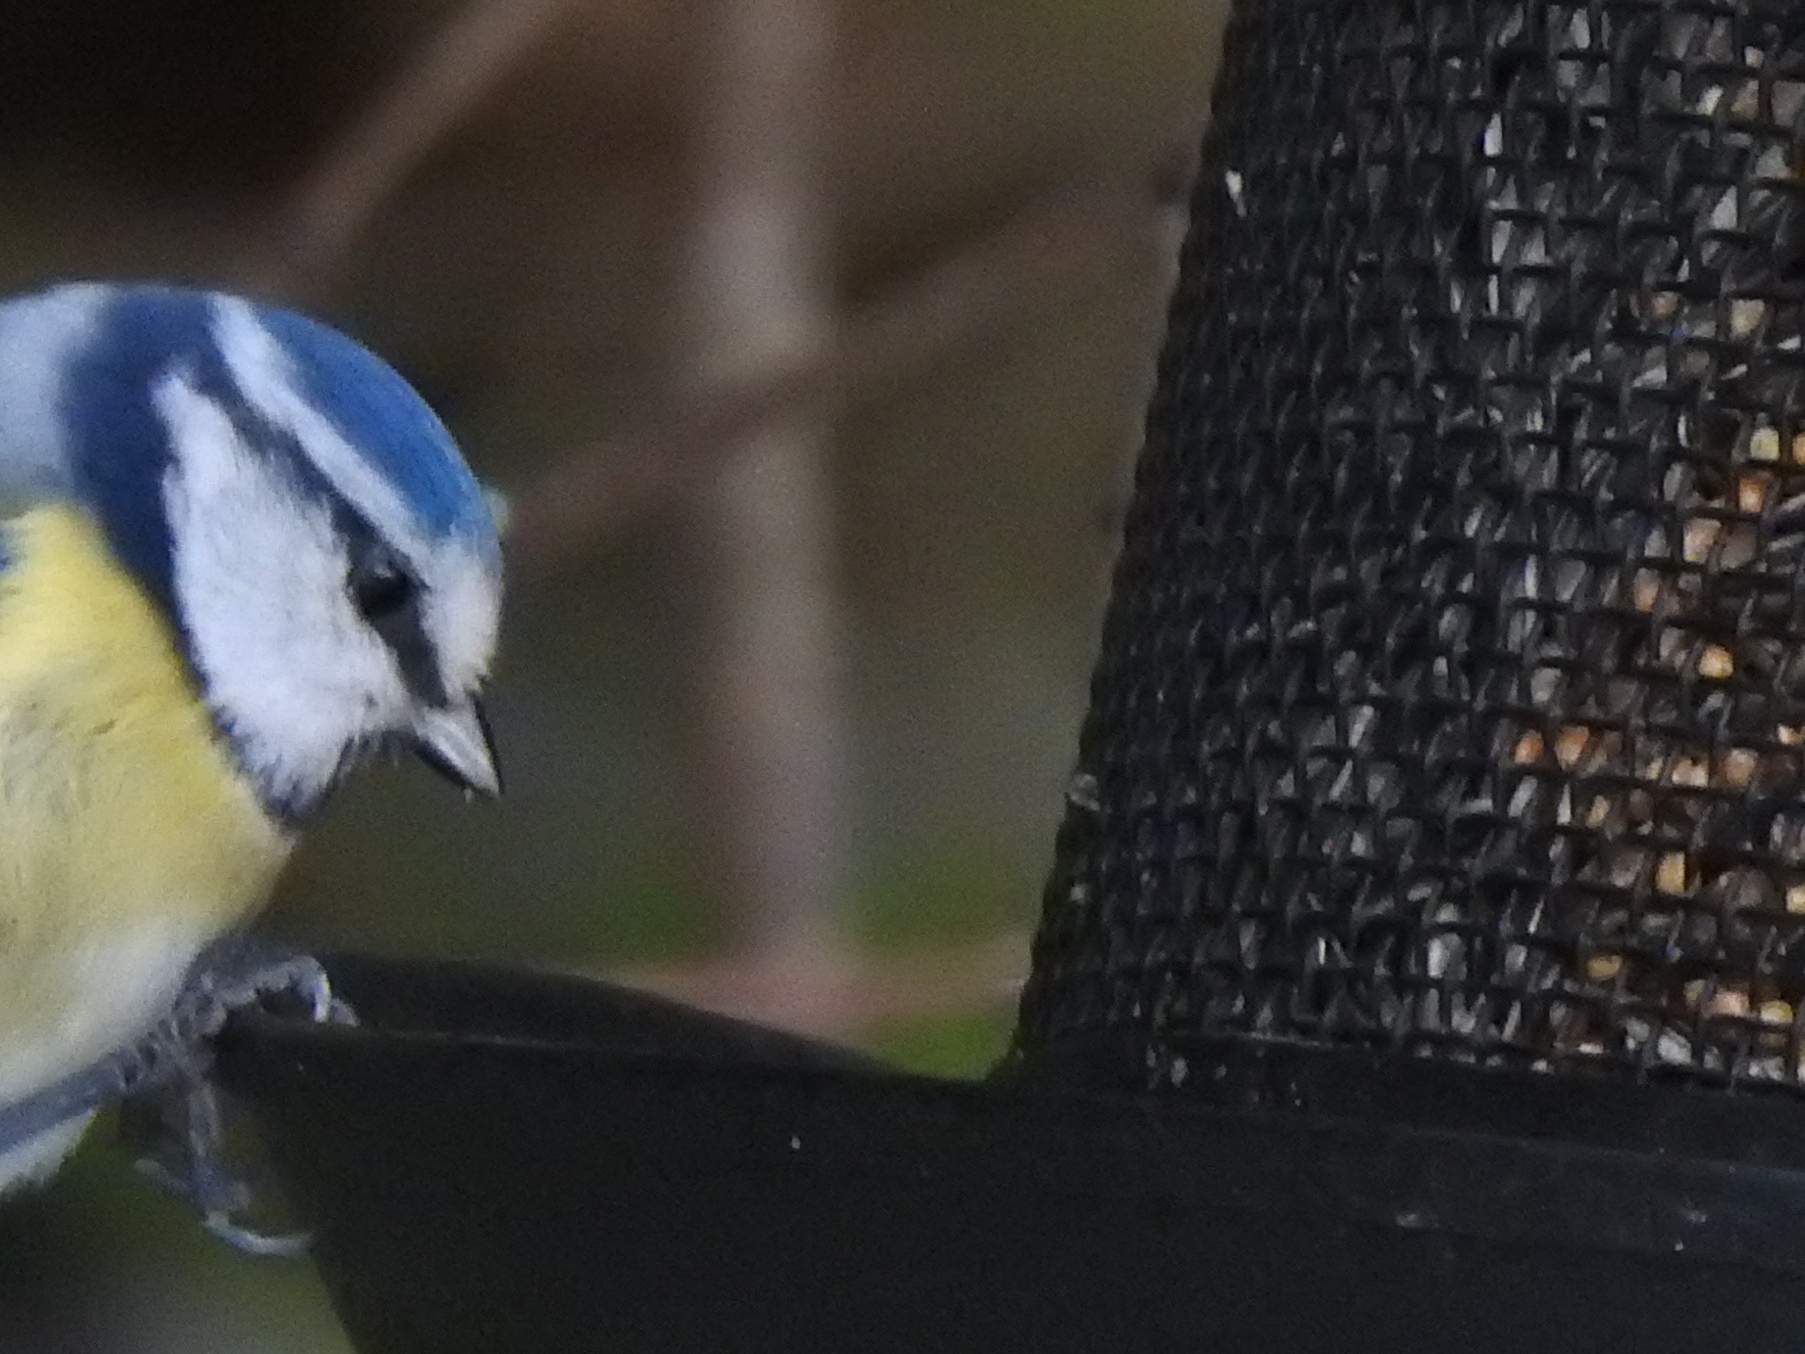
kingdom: Animalia
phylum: Chordata
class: Aves
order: Passeriformes
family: Paridae
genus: Cyanistes
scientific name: Cyanistes caeruleus
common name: Eurasian blue tit
